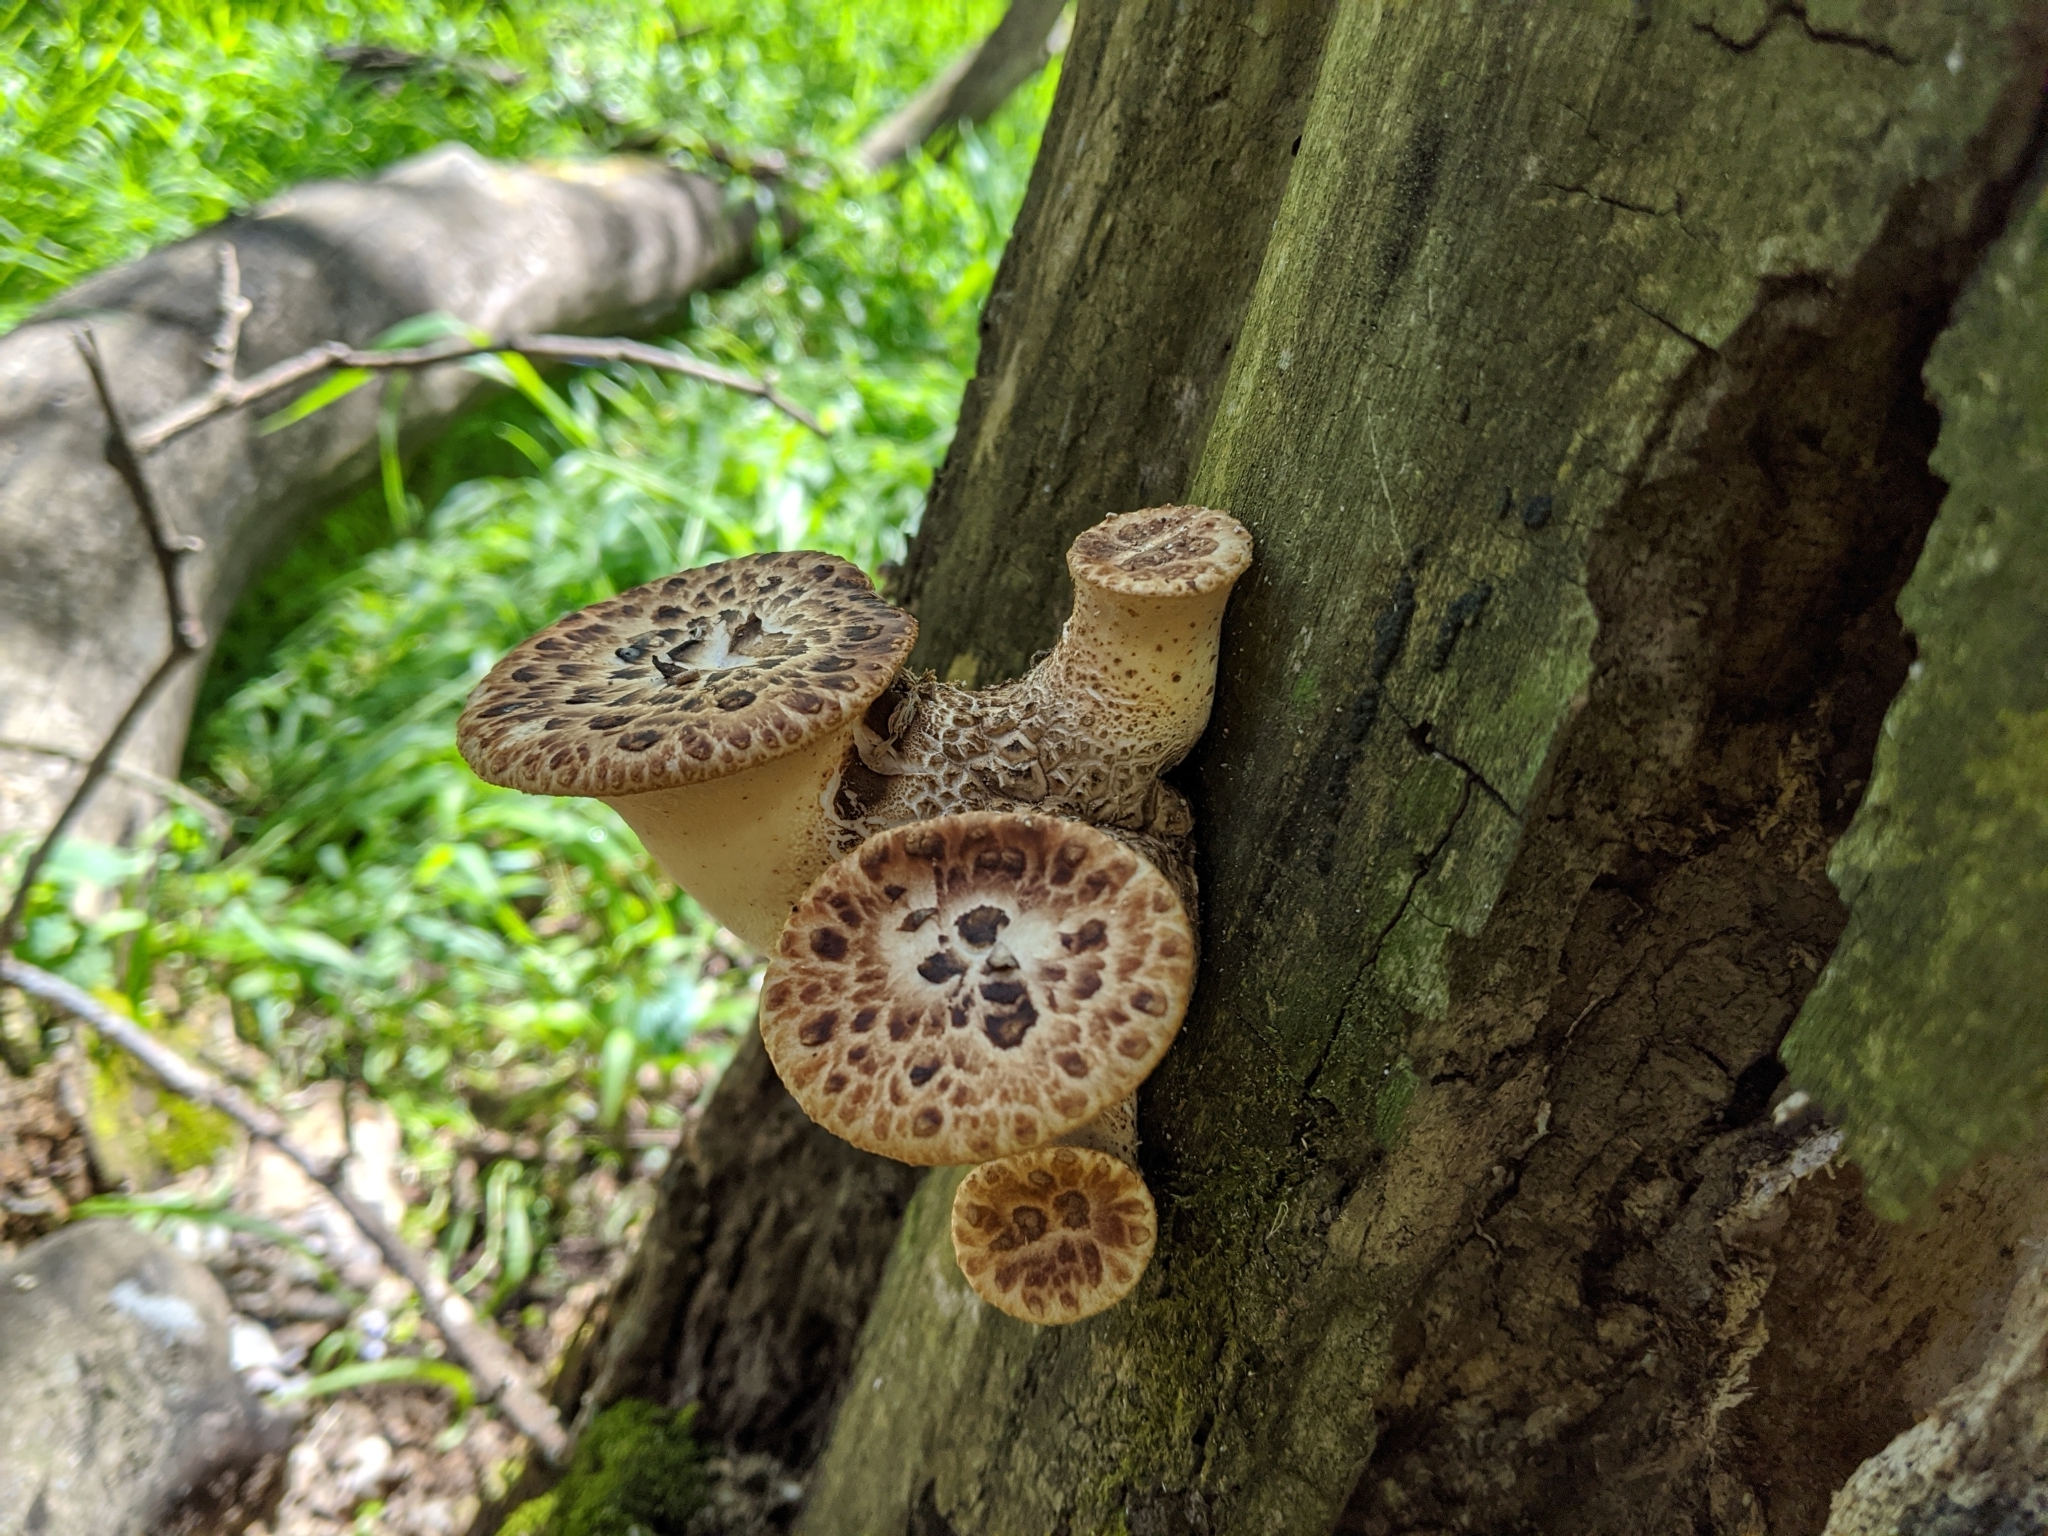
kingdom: Fungi
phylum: Basidiomycota
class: Agaricomycetes
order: Polyporales
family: Polyporaceae
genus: Cerioporus
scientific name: Cerioporus squamosus
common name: Dryad's saddle
